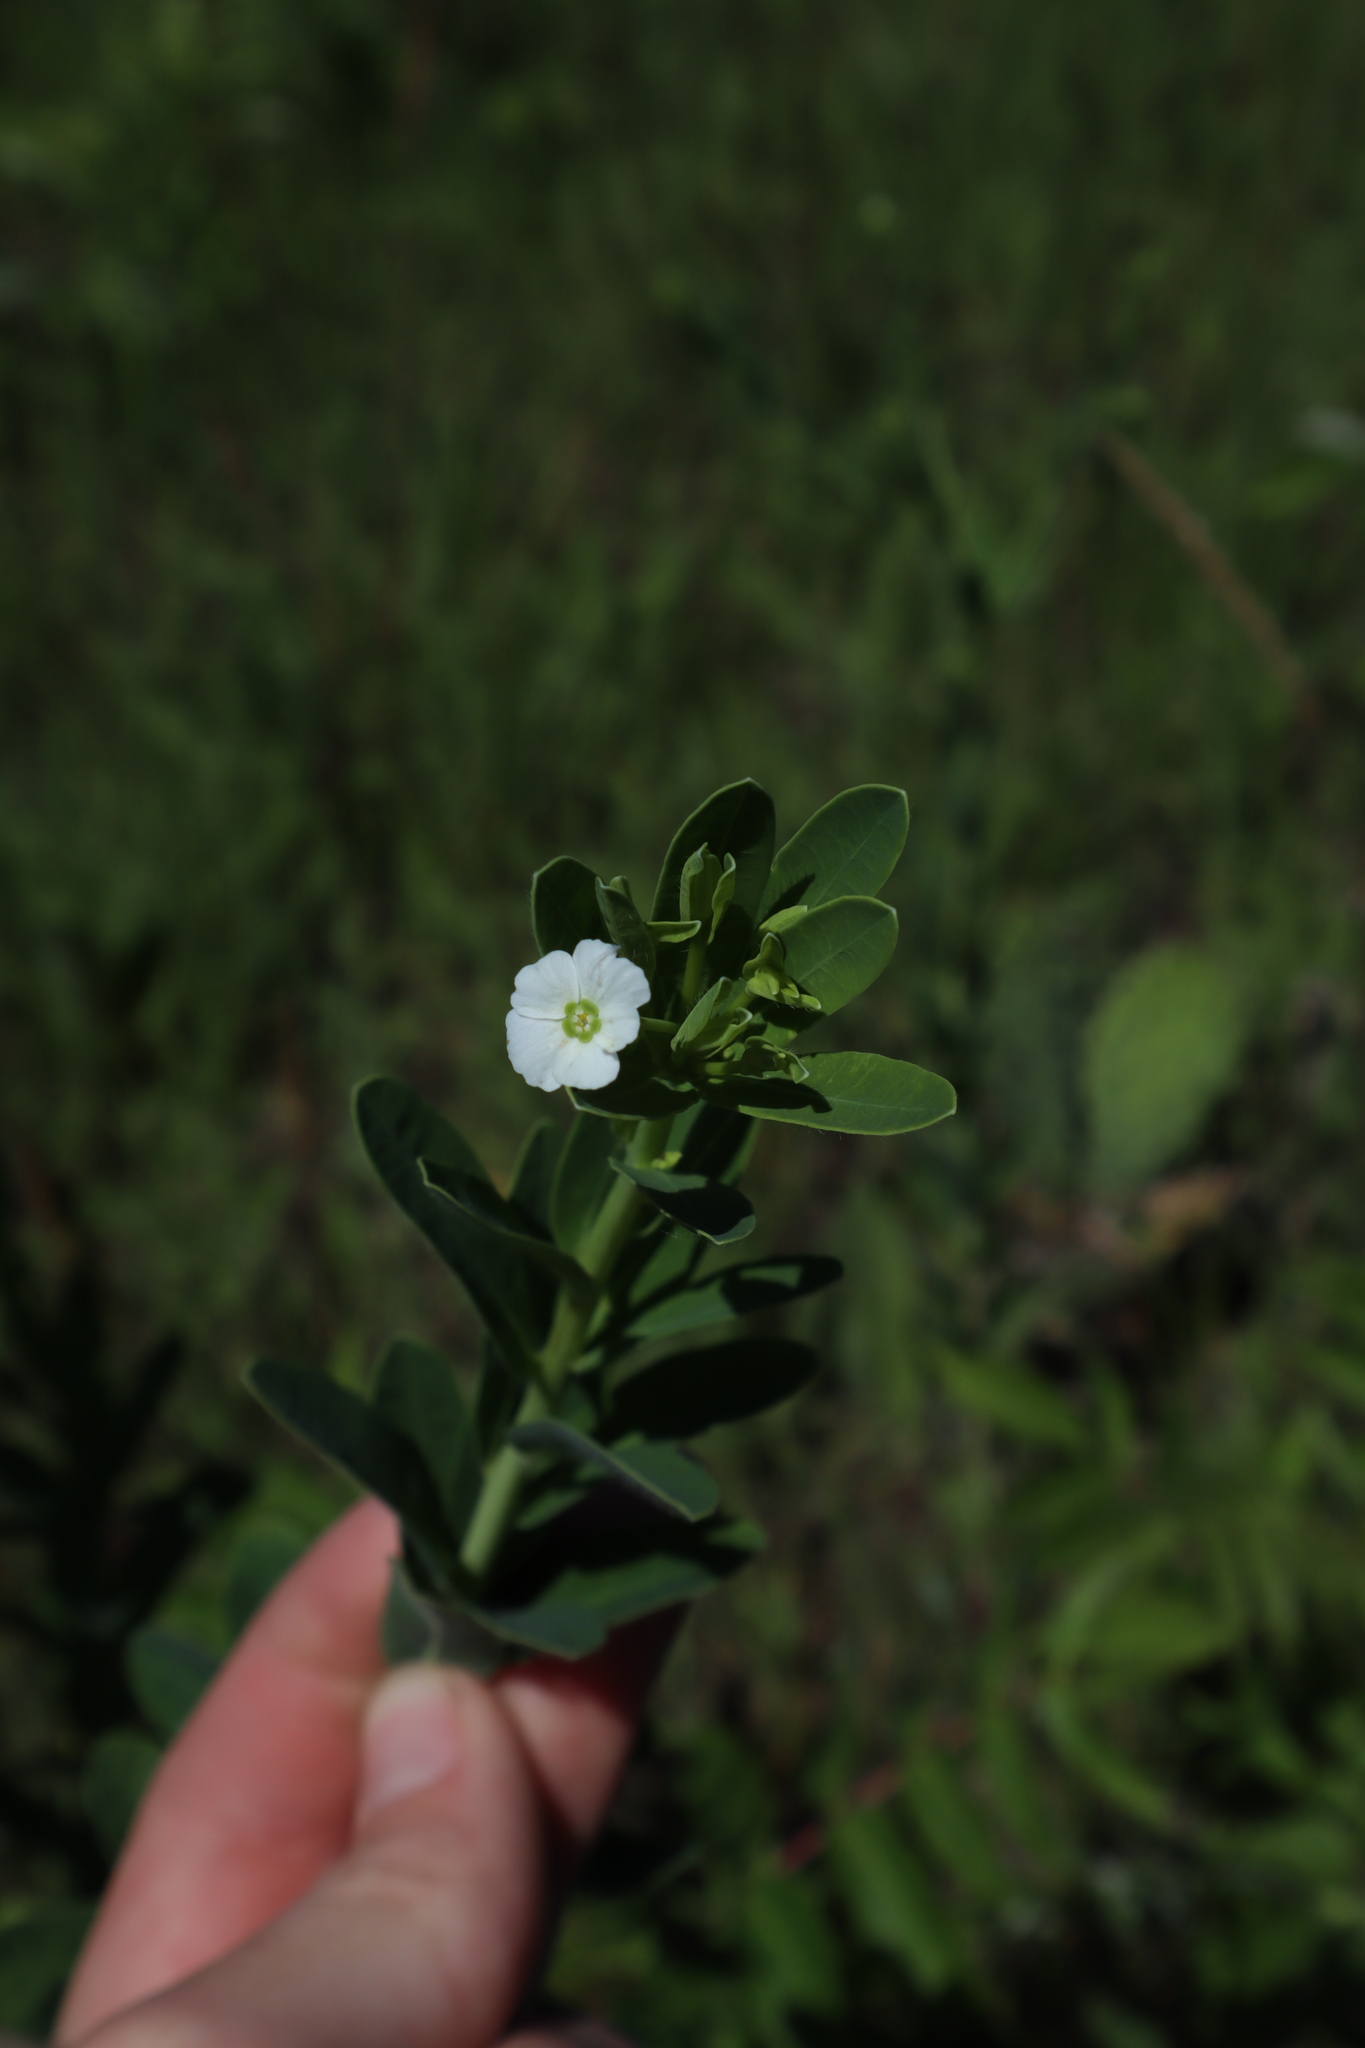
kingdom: Plantae
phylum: Tracheophyta
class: Magnoliopsida
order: Malpighiales
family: Euphorbiaceae
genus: Euphorbia
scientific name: Euphorbia corollata
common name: Flowering spurge
